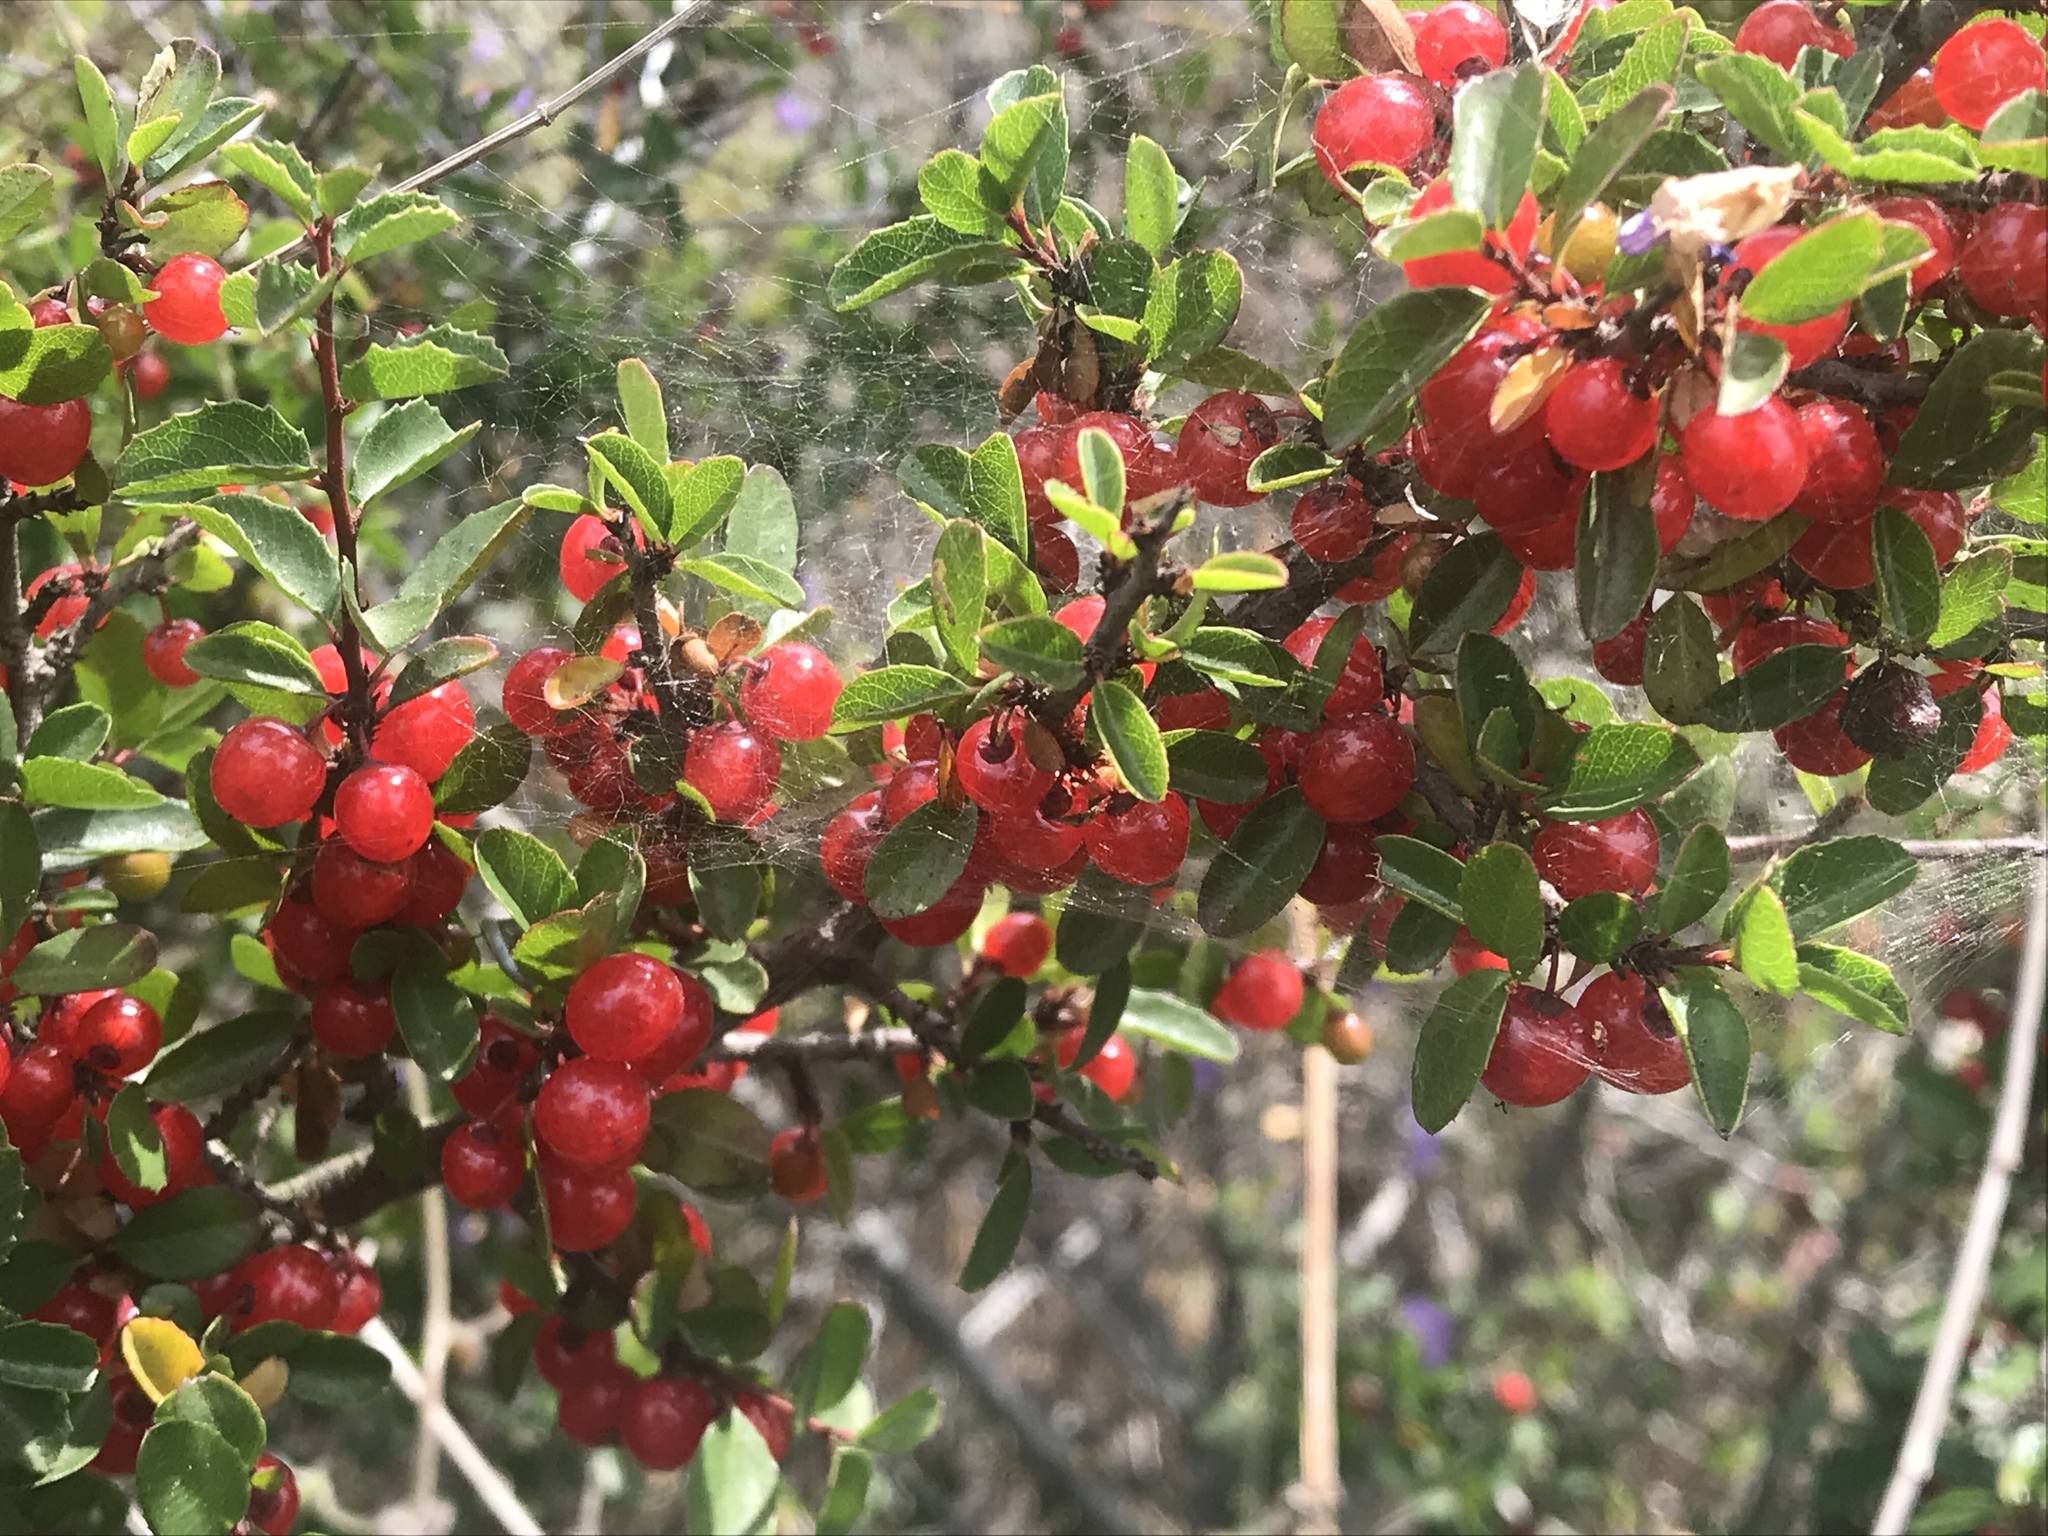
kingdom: Plantae
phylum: Tracheophyta
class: Magnoliopsida
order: Rosales
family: Rhamnaceae
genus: Endotropis
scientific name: Endotropis crocea
